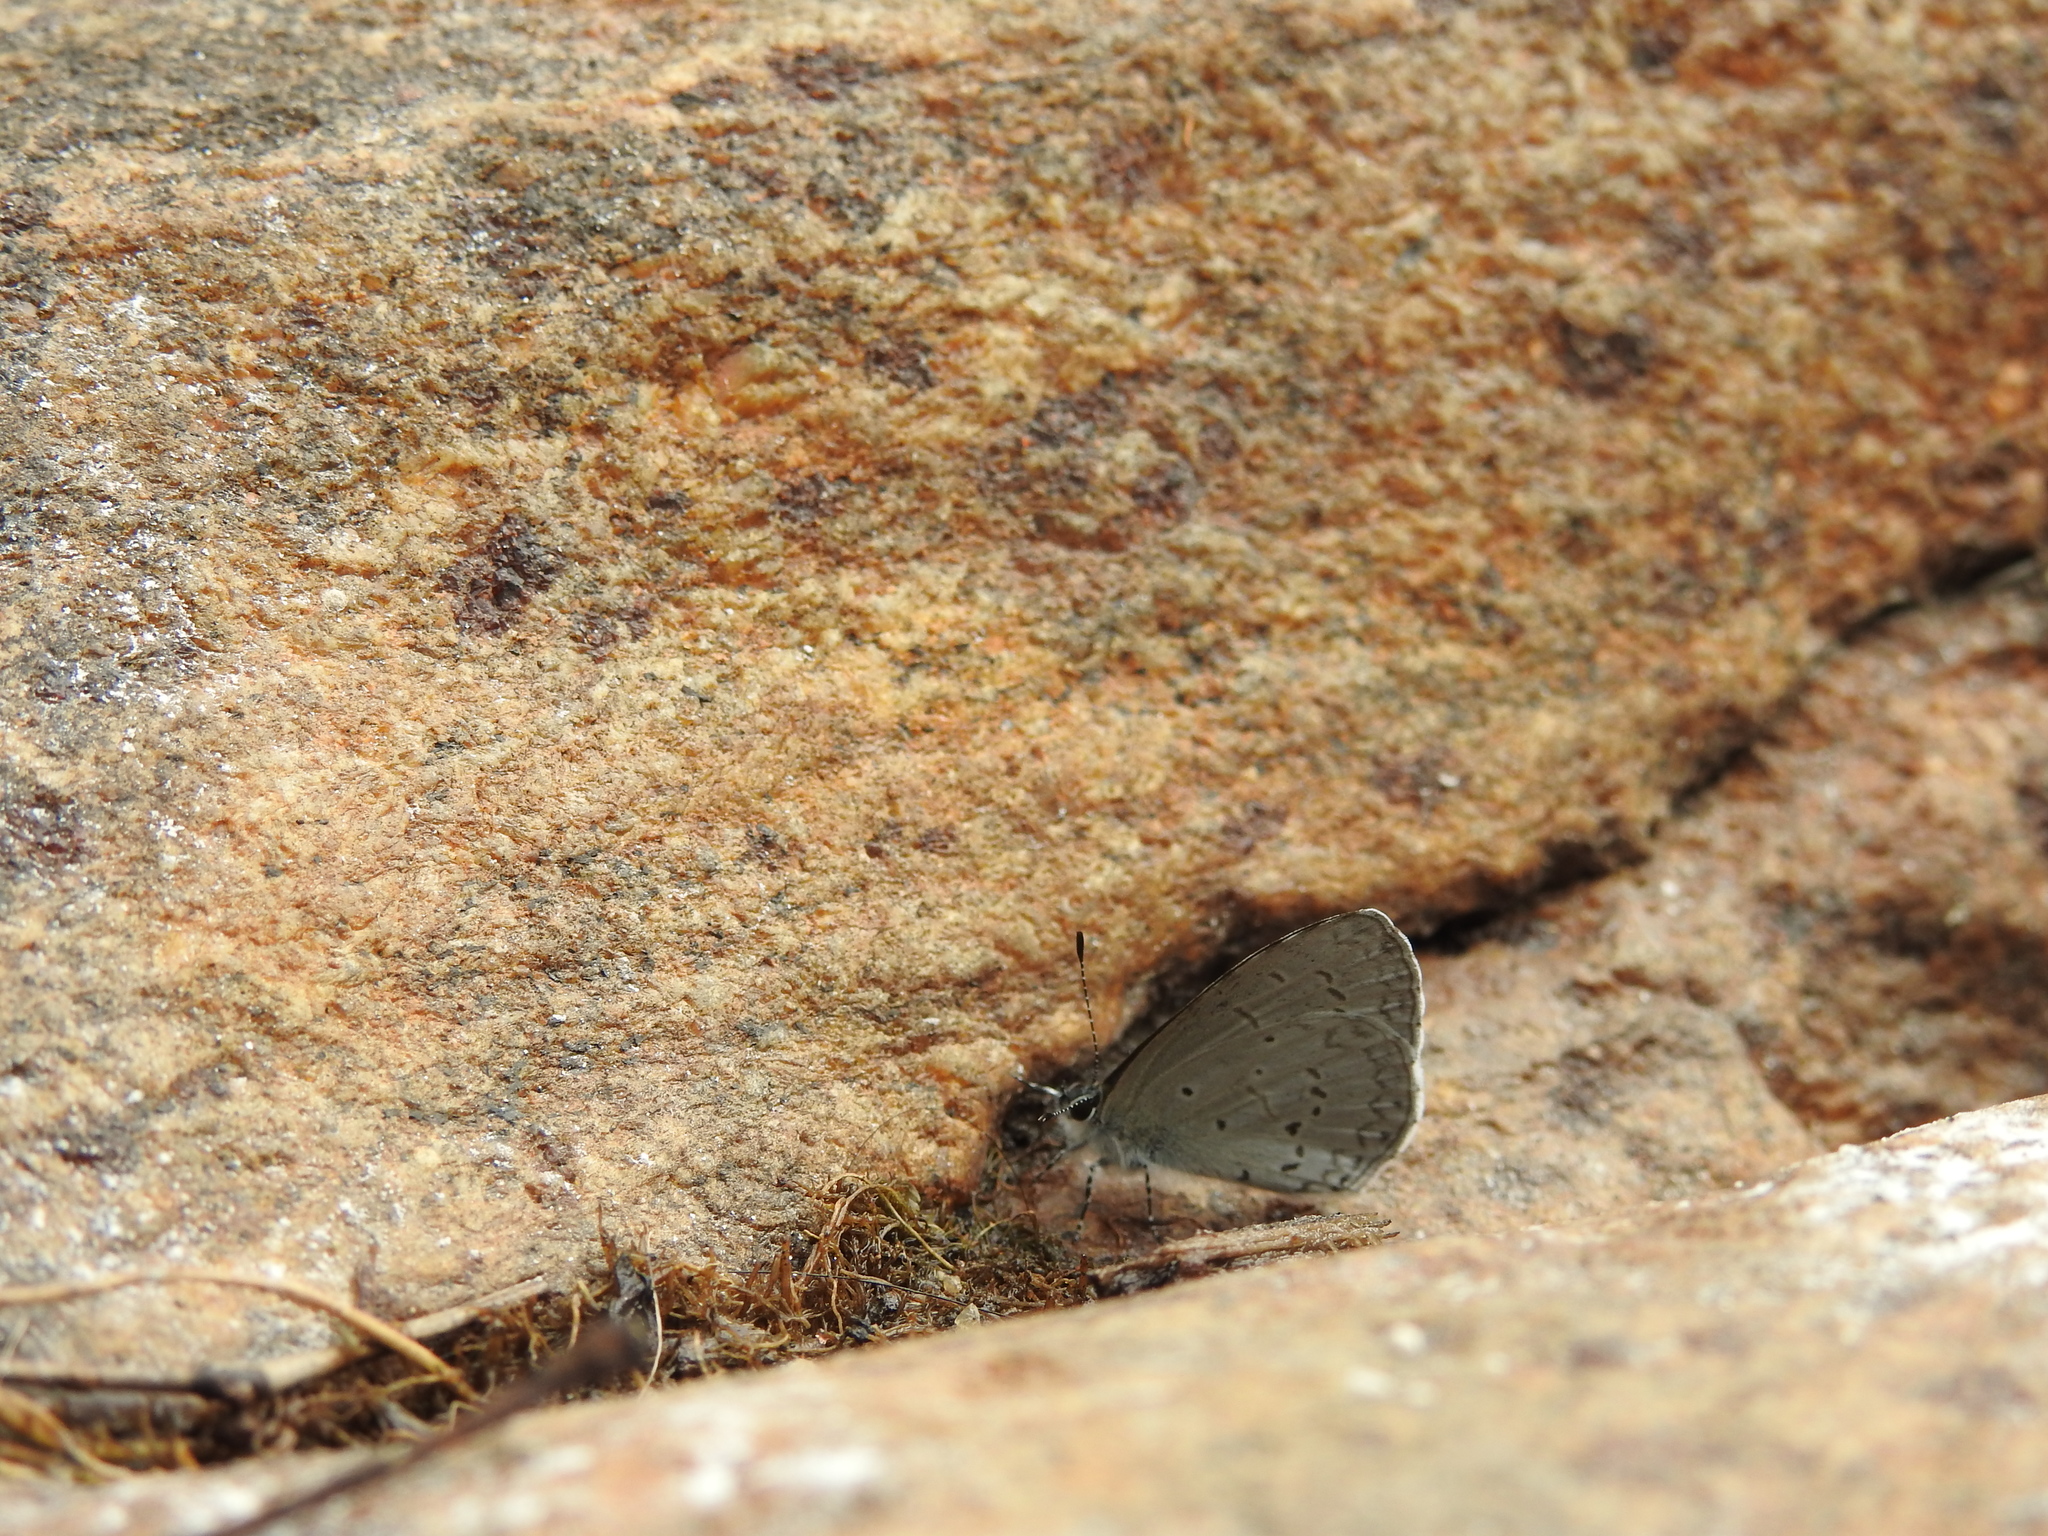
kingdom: Animalia
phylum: Arthropoda
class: Insecta
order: Lepidoptera
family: Lycaenidae
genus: Celastrina
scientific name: Celastrina lavendularis
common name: Plain hedge blue
